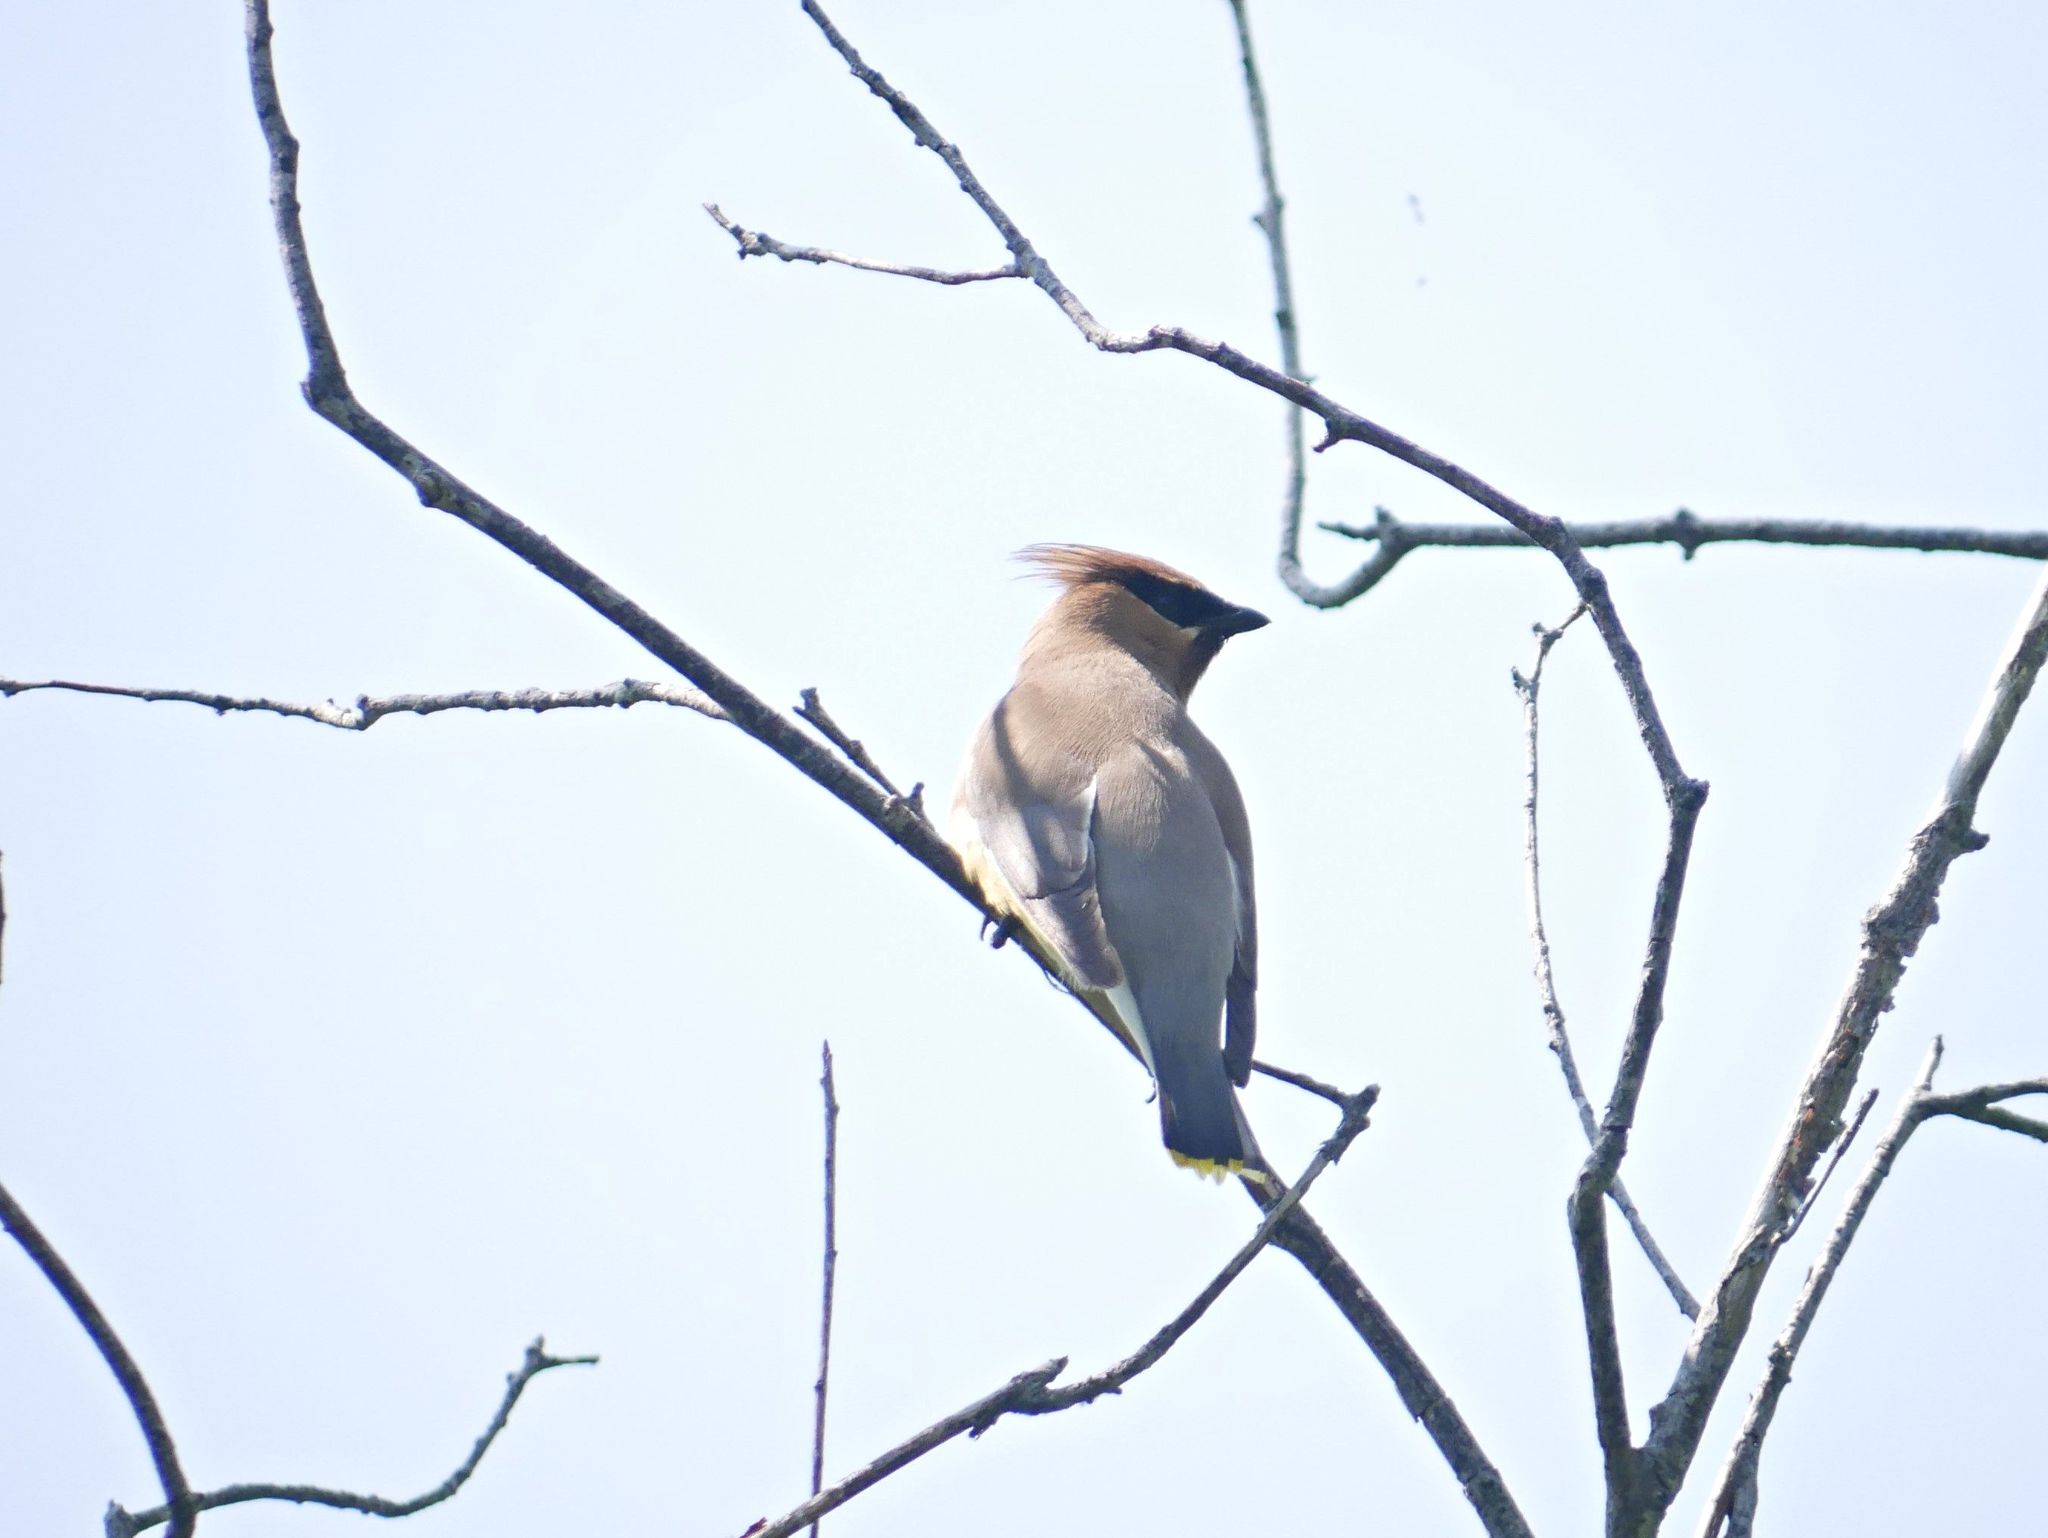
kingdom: Animalia
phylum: Chordata
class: Aves
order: Passeriformes
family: Bombycillidae
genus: Bombycilla
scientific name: Bombycilla cedrorum
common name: Cedar waxwing
